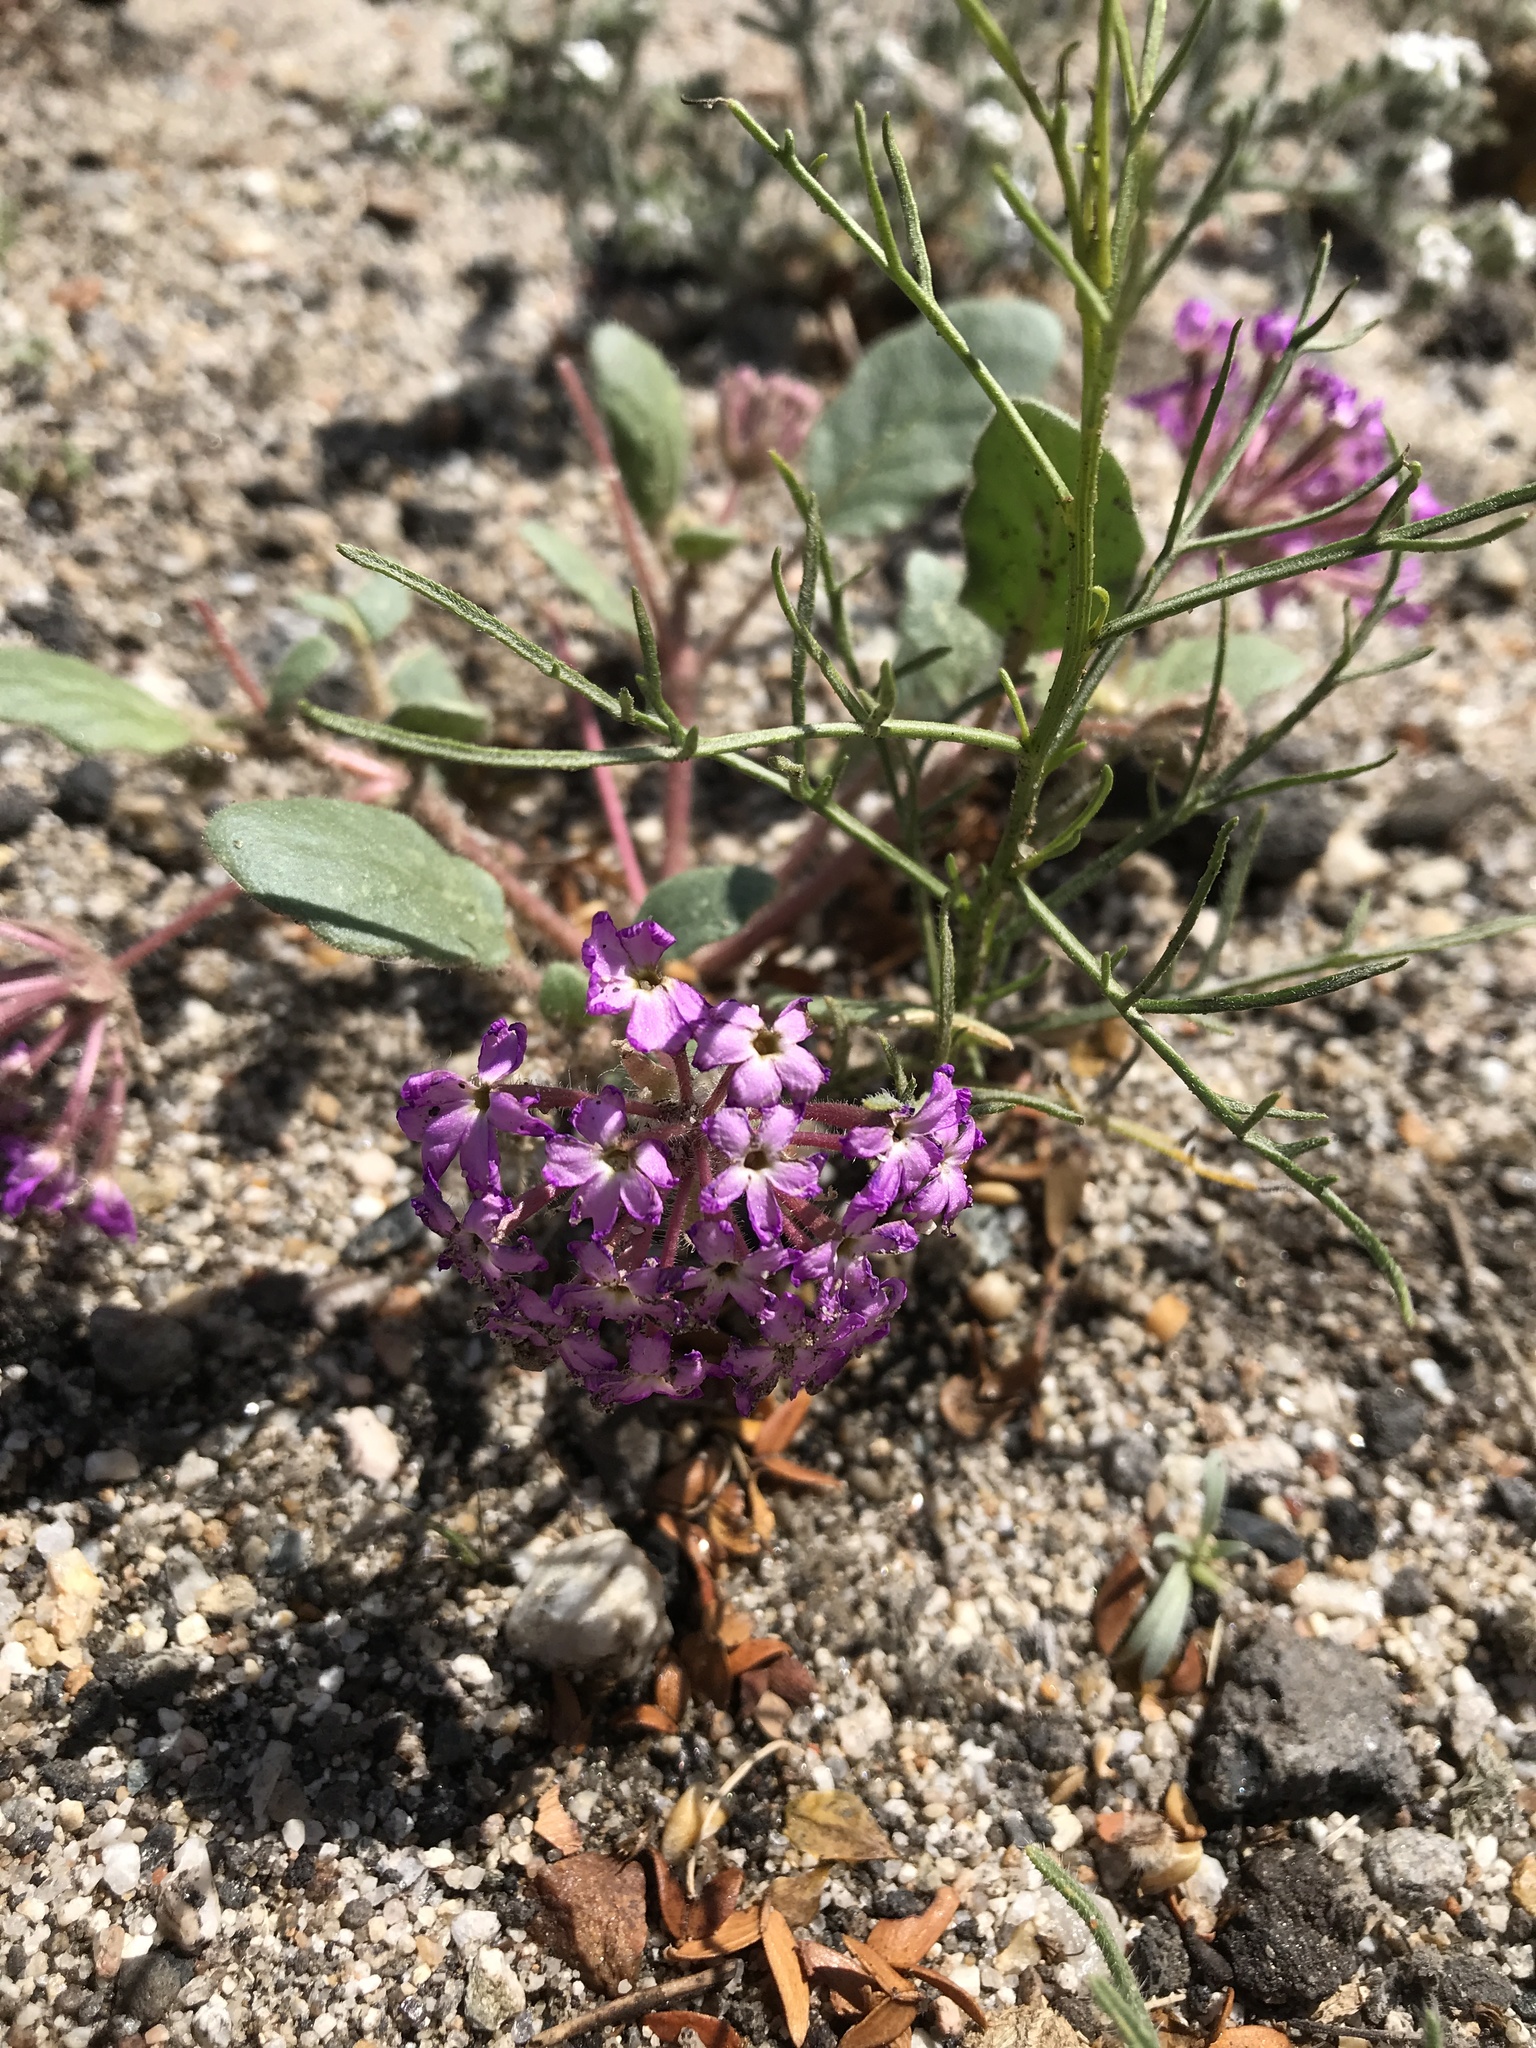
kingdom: Plantae
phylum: Tracheophyta
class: Magnoliopsida
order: Caryophyllales
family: Nyctaginaceae
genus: Abronia
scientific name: Abronia villosa
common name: Desert sand-verbena
